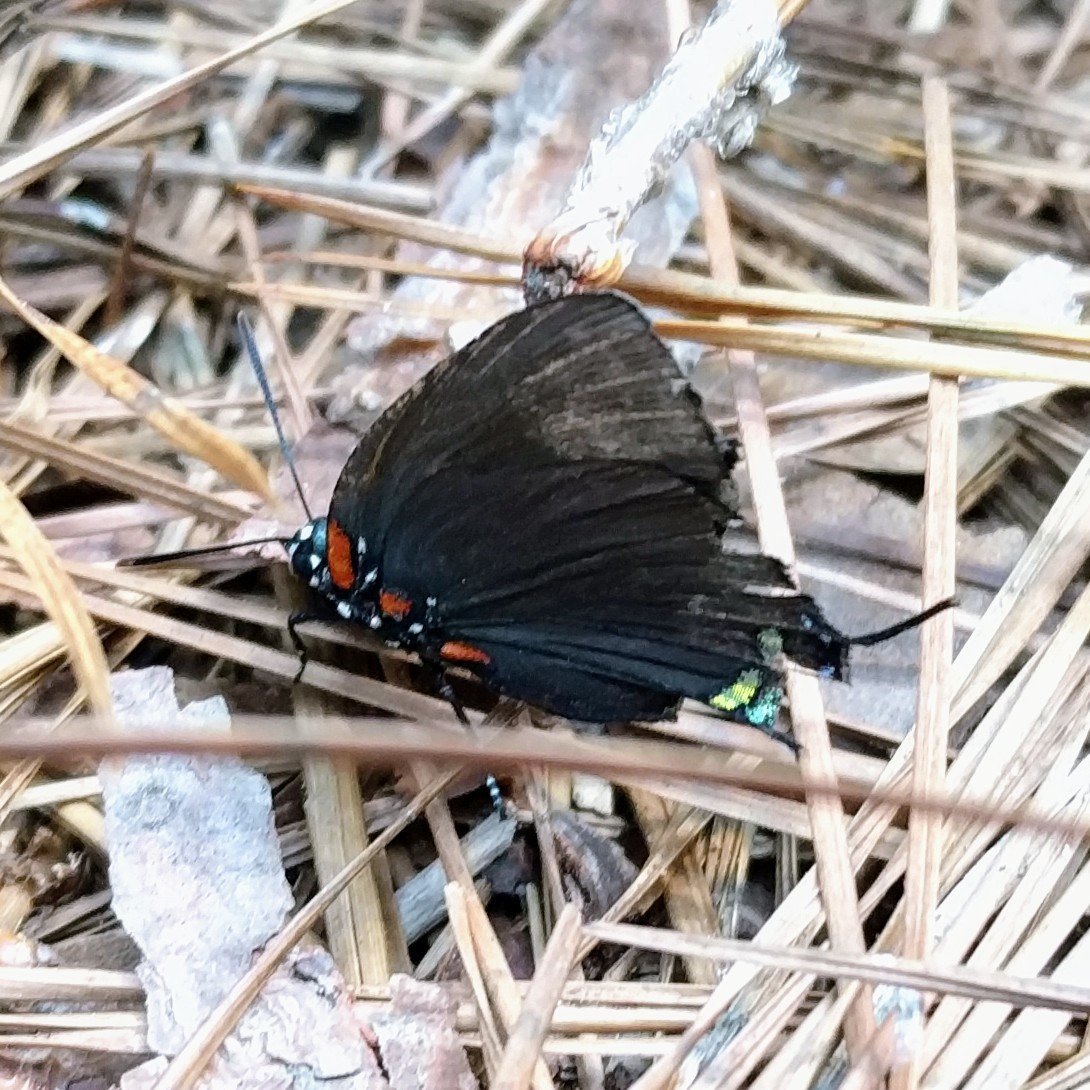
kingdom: Animalia
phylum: Arthropoda
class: Insecta
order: Lepidoptera
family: Lycaenidae
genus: Atlides
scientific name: Atlides halesus
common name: Great purple hairstreak
